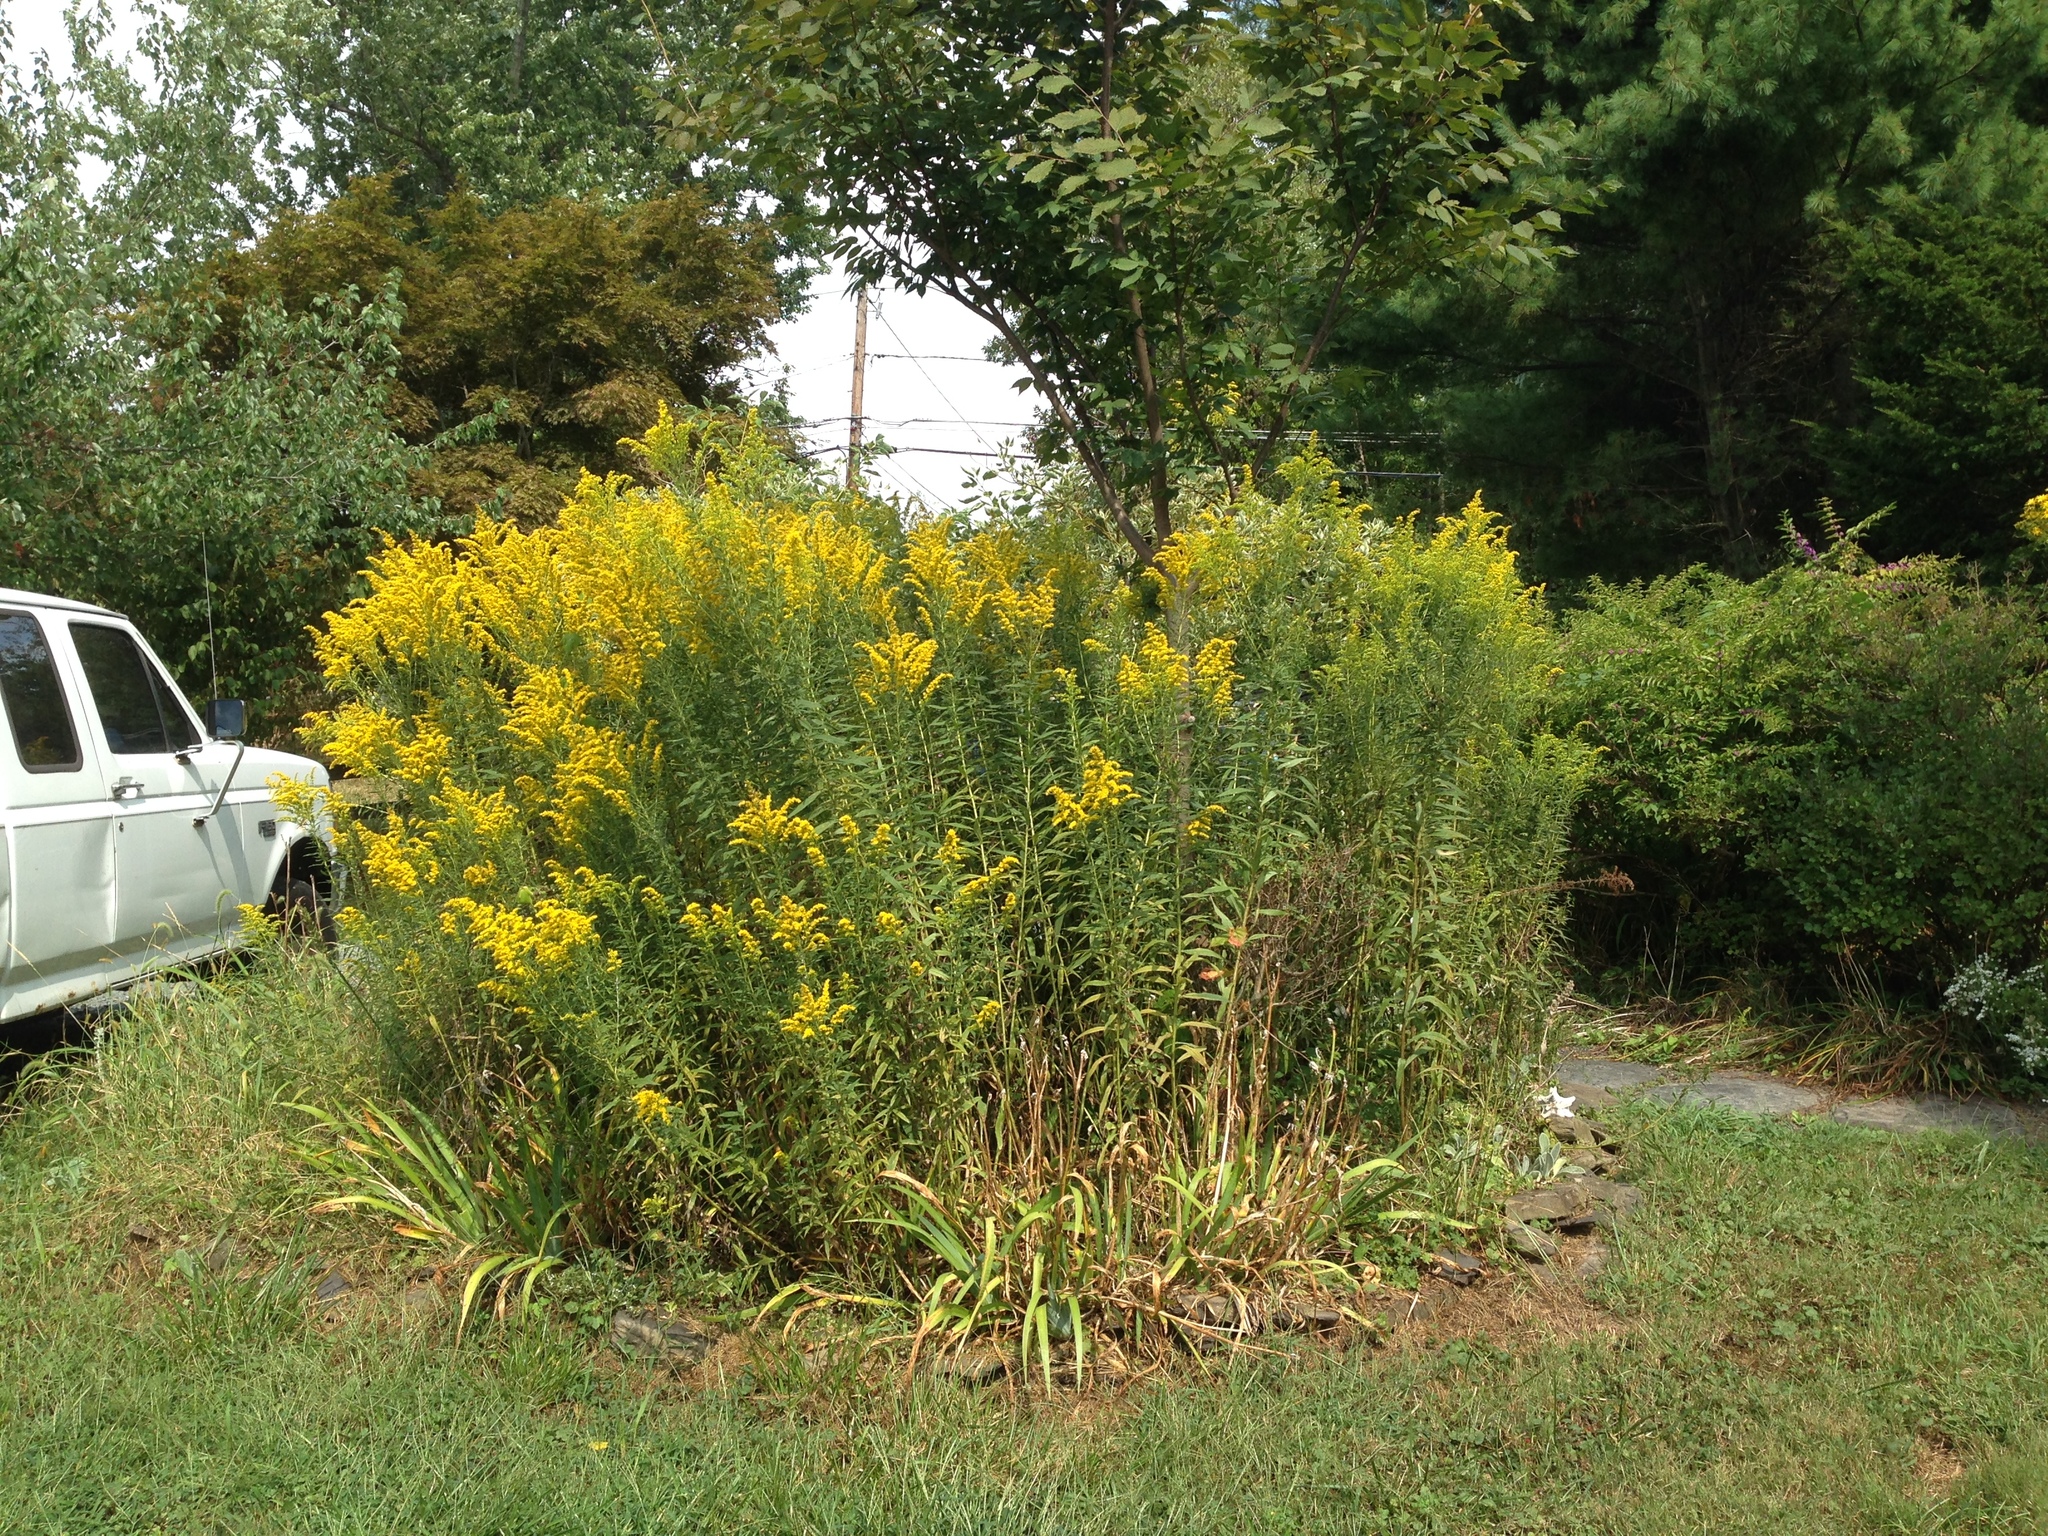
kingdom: Plantae
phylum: Tracheophyta
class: Magnoliopsida
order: Asterales
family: Asteraceae
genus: Solidago
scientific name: Solidago altissima
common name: Late goldenrod
